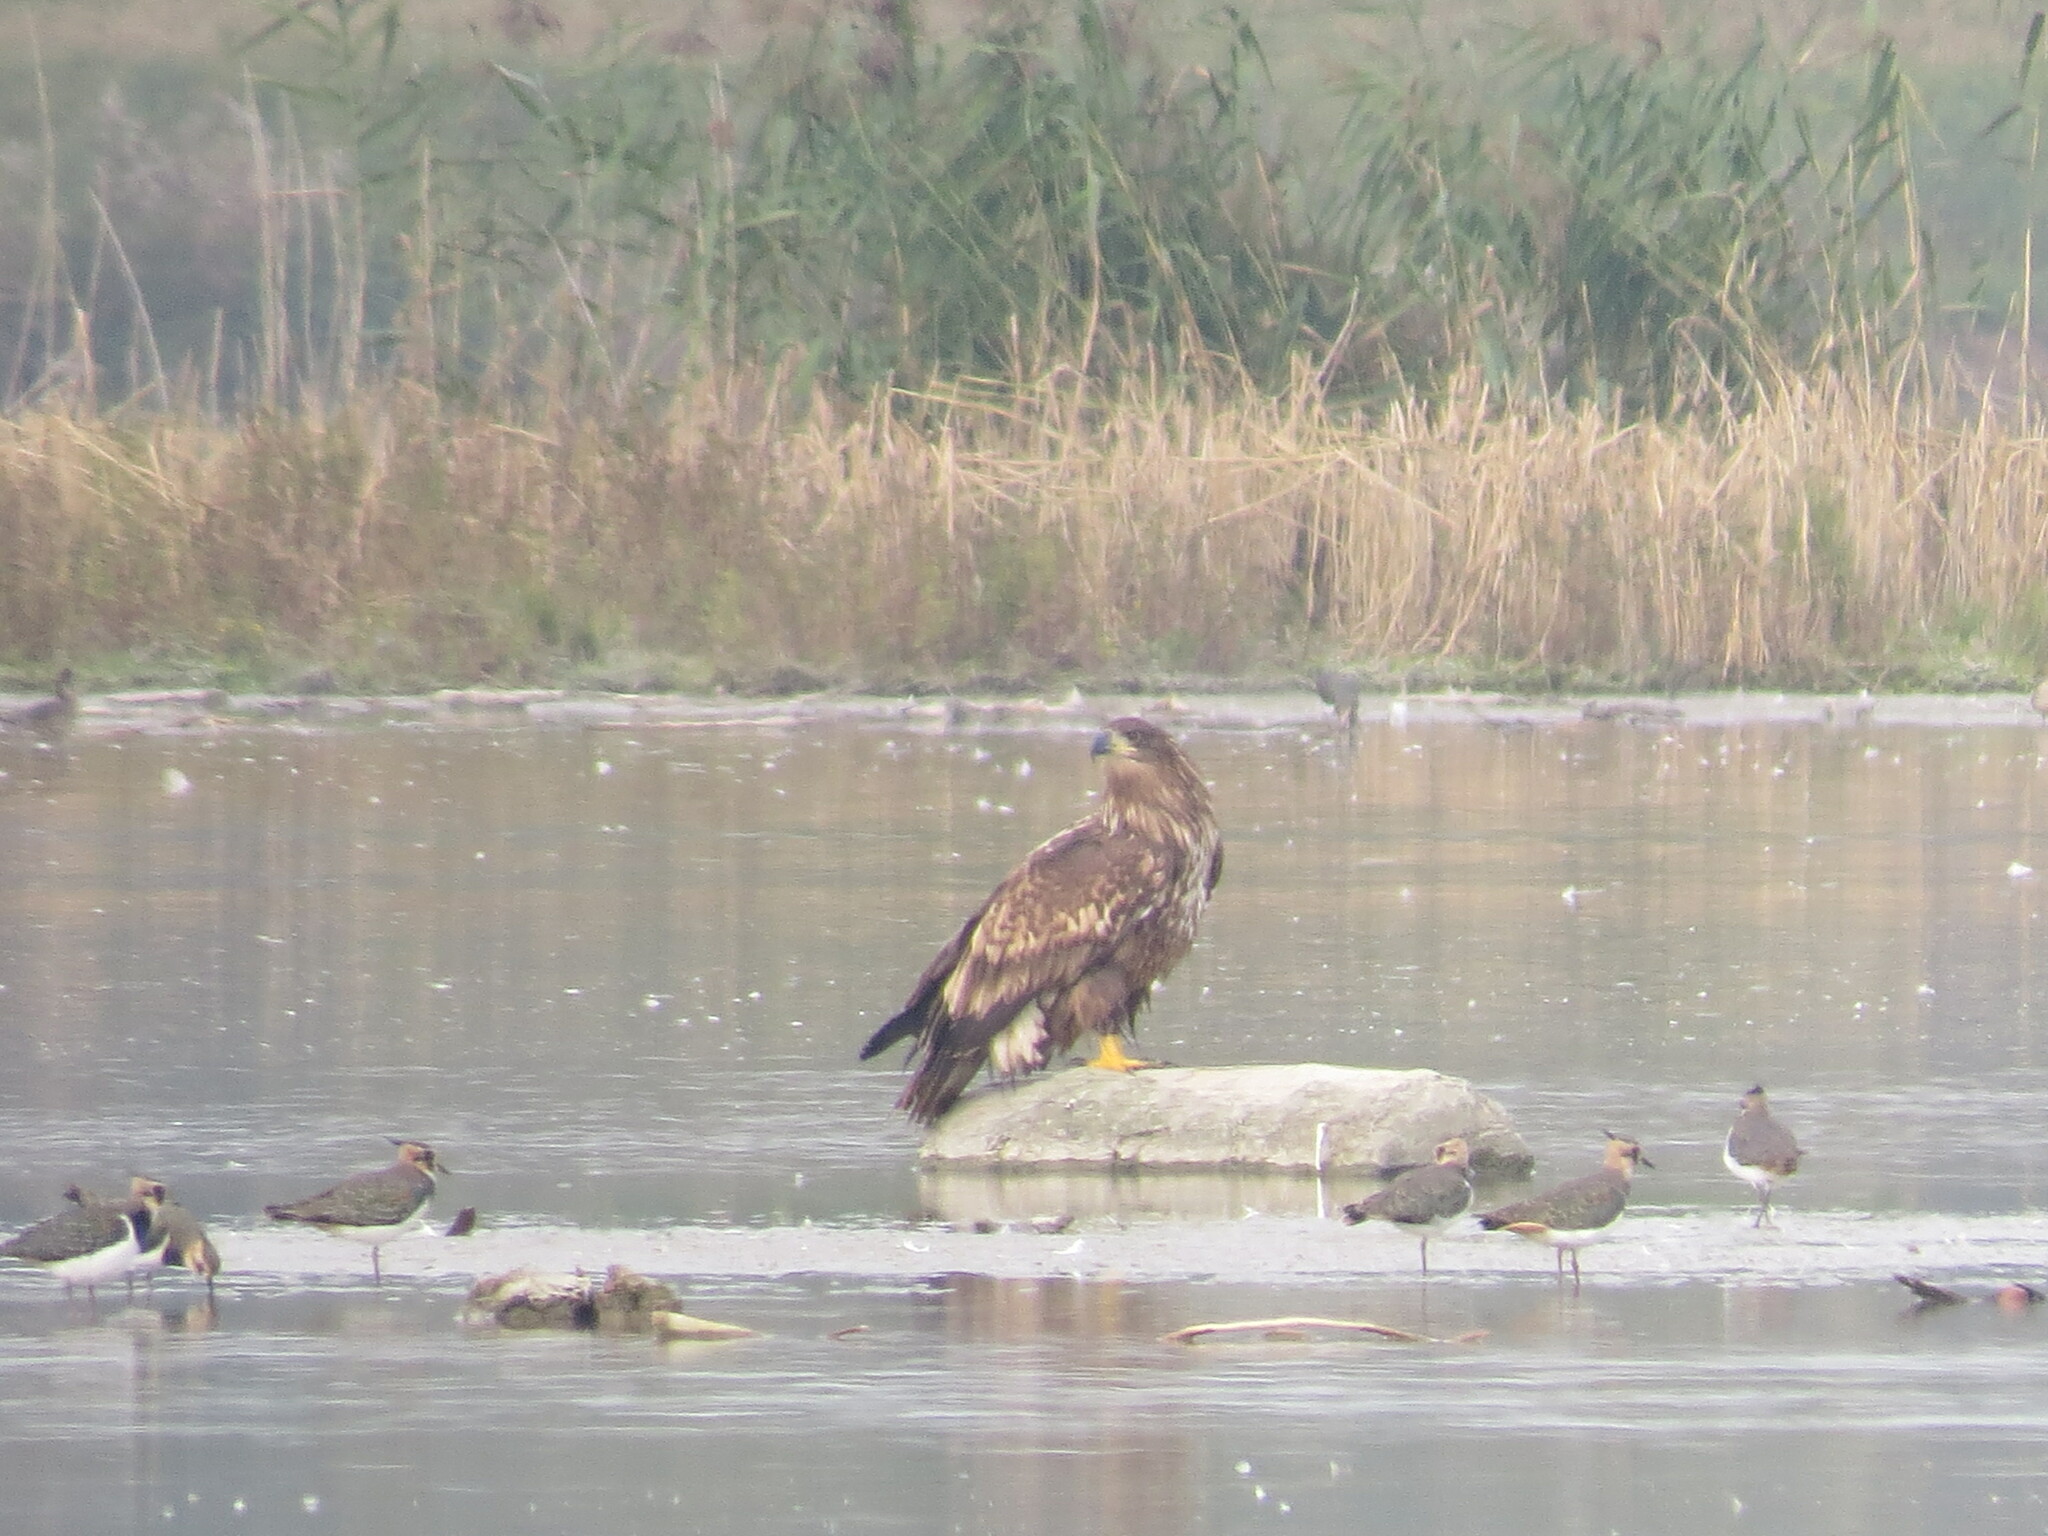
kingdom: Animalia
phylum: Chordata
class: Aves
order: Accipitriformes
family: Accipitridae
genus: Haliaeetus
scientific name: Haliaeetus albicilla
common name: White-tailed eagle
